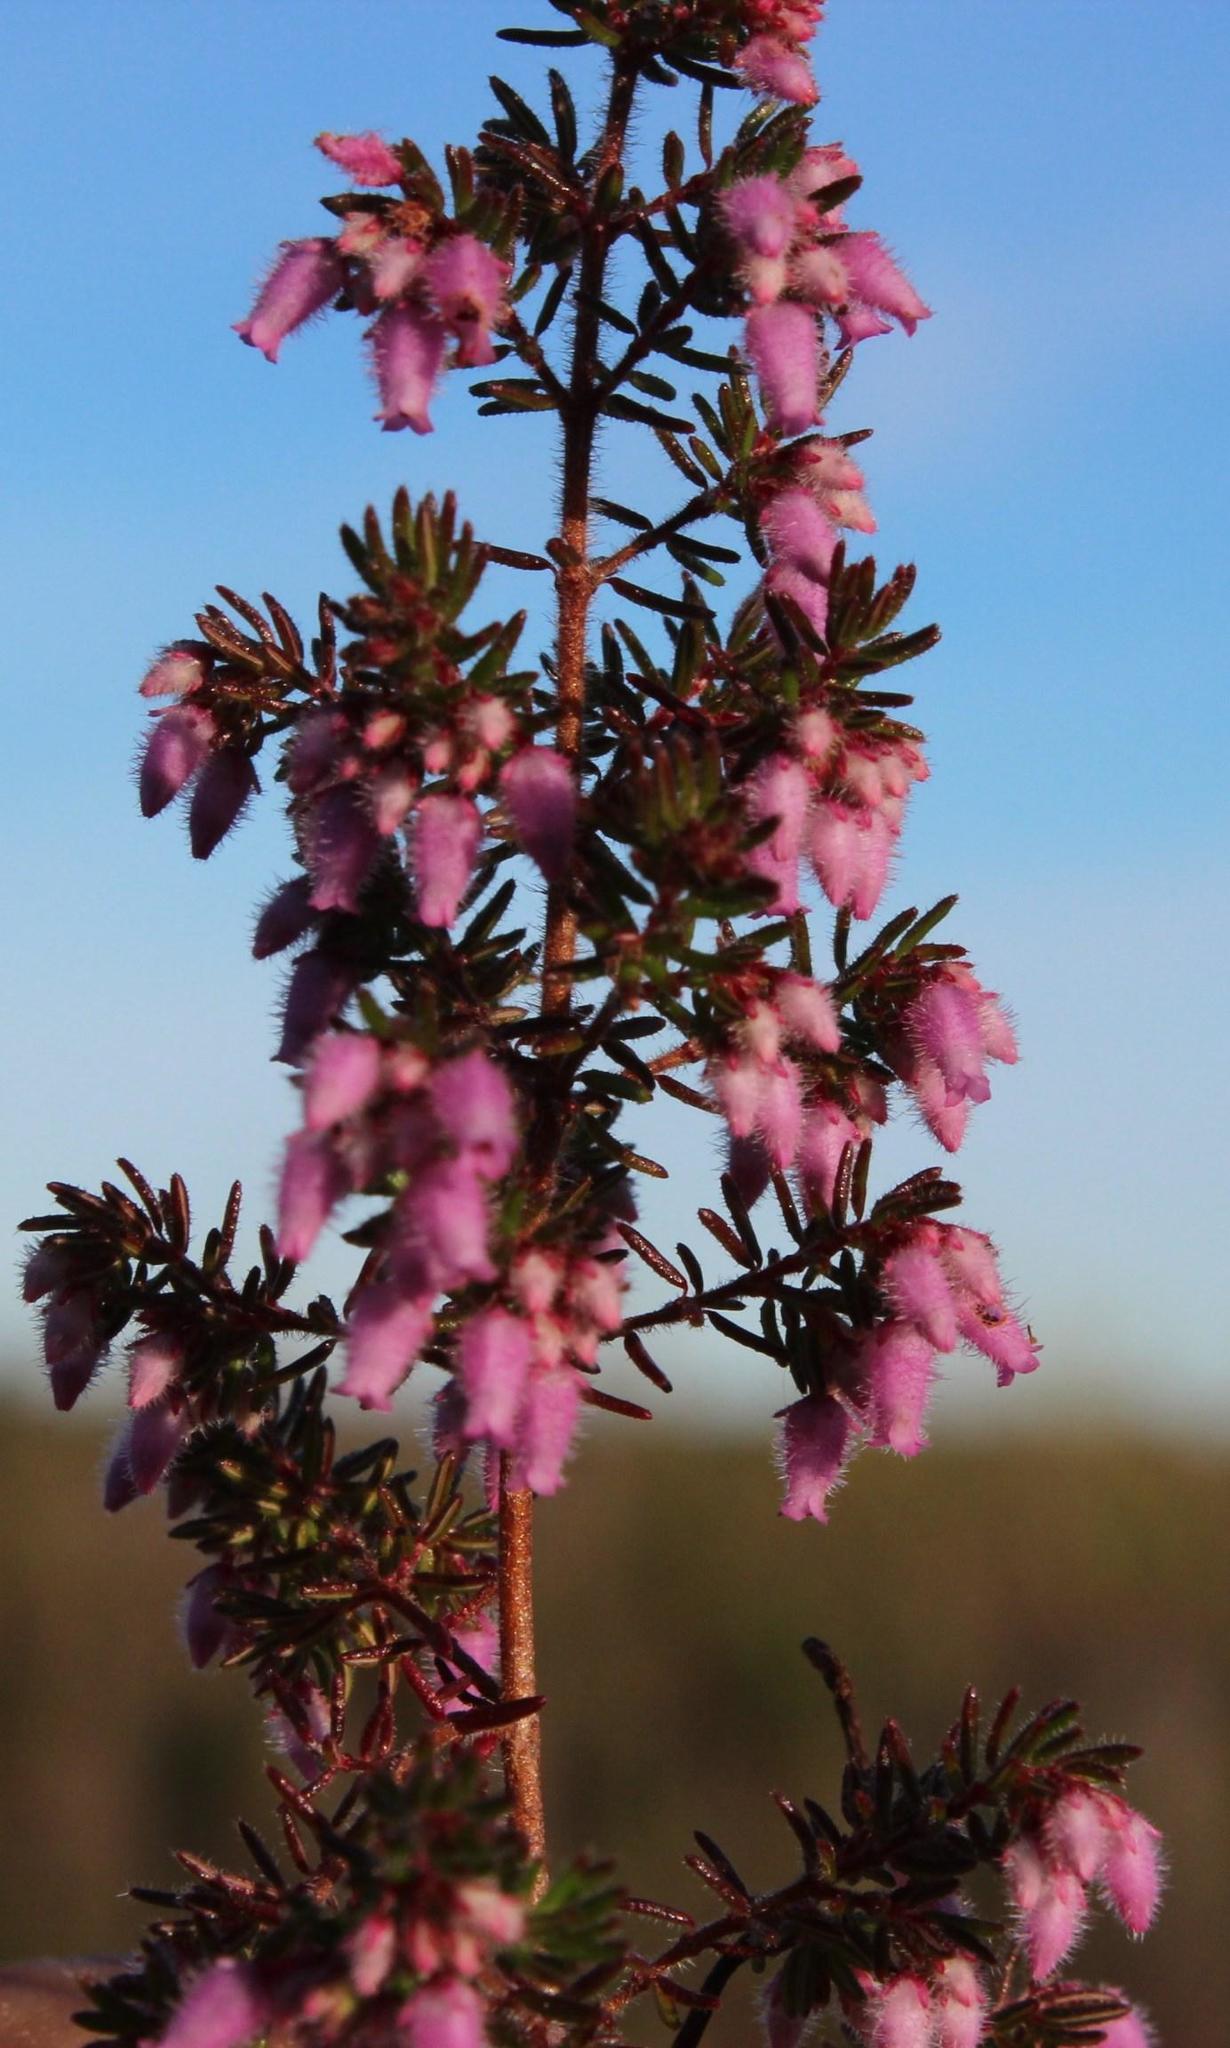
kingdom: Plantae
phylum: Tracheophyta
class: Magnoliopsida
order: Ericales
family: Ericaceae
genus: Erica
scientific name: Erica parviflora
